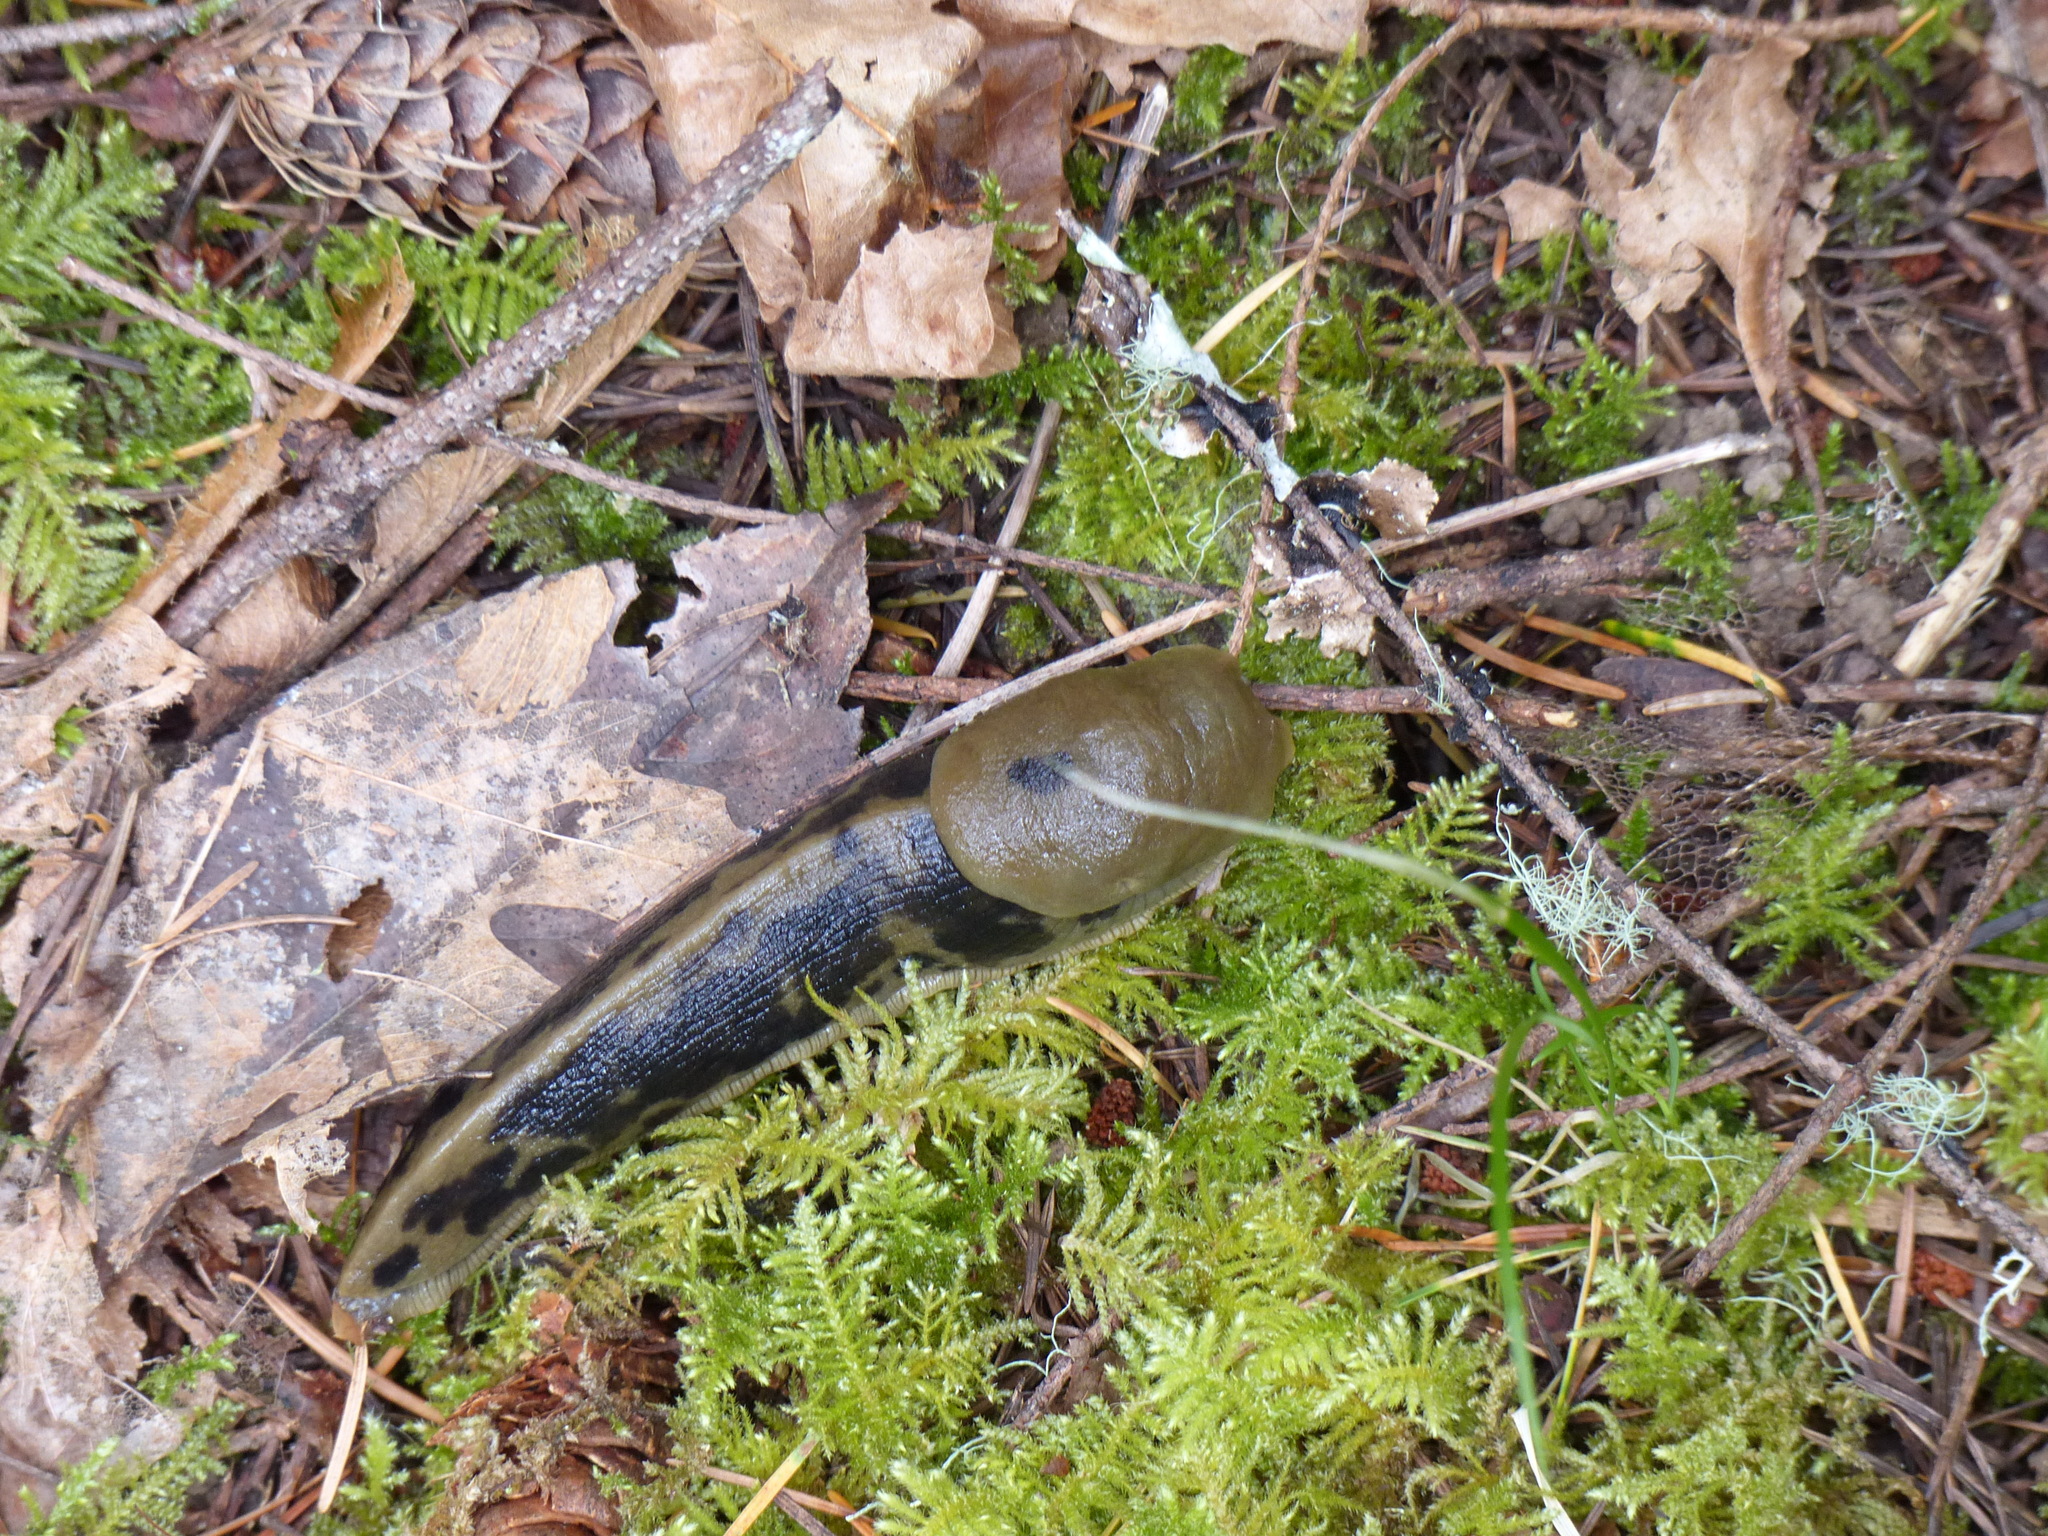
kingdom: Animalia
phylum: Mollusca
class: Gastropoda
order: Stylommatophora
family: Ariolimacidae
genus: Ariolimax
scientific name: Ariolimax columbianus
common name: Pacific banana slug
